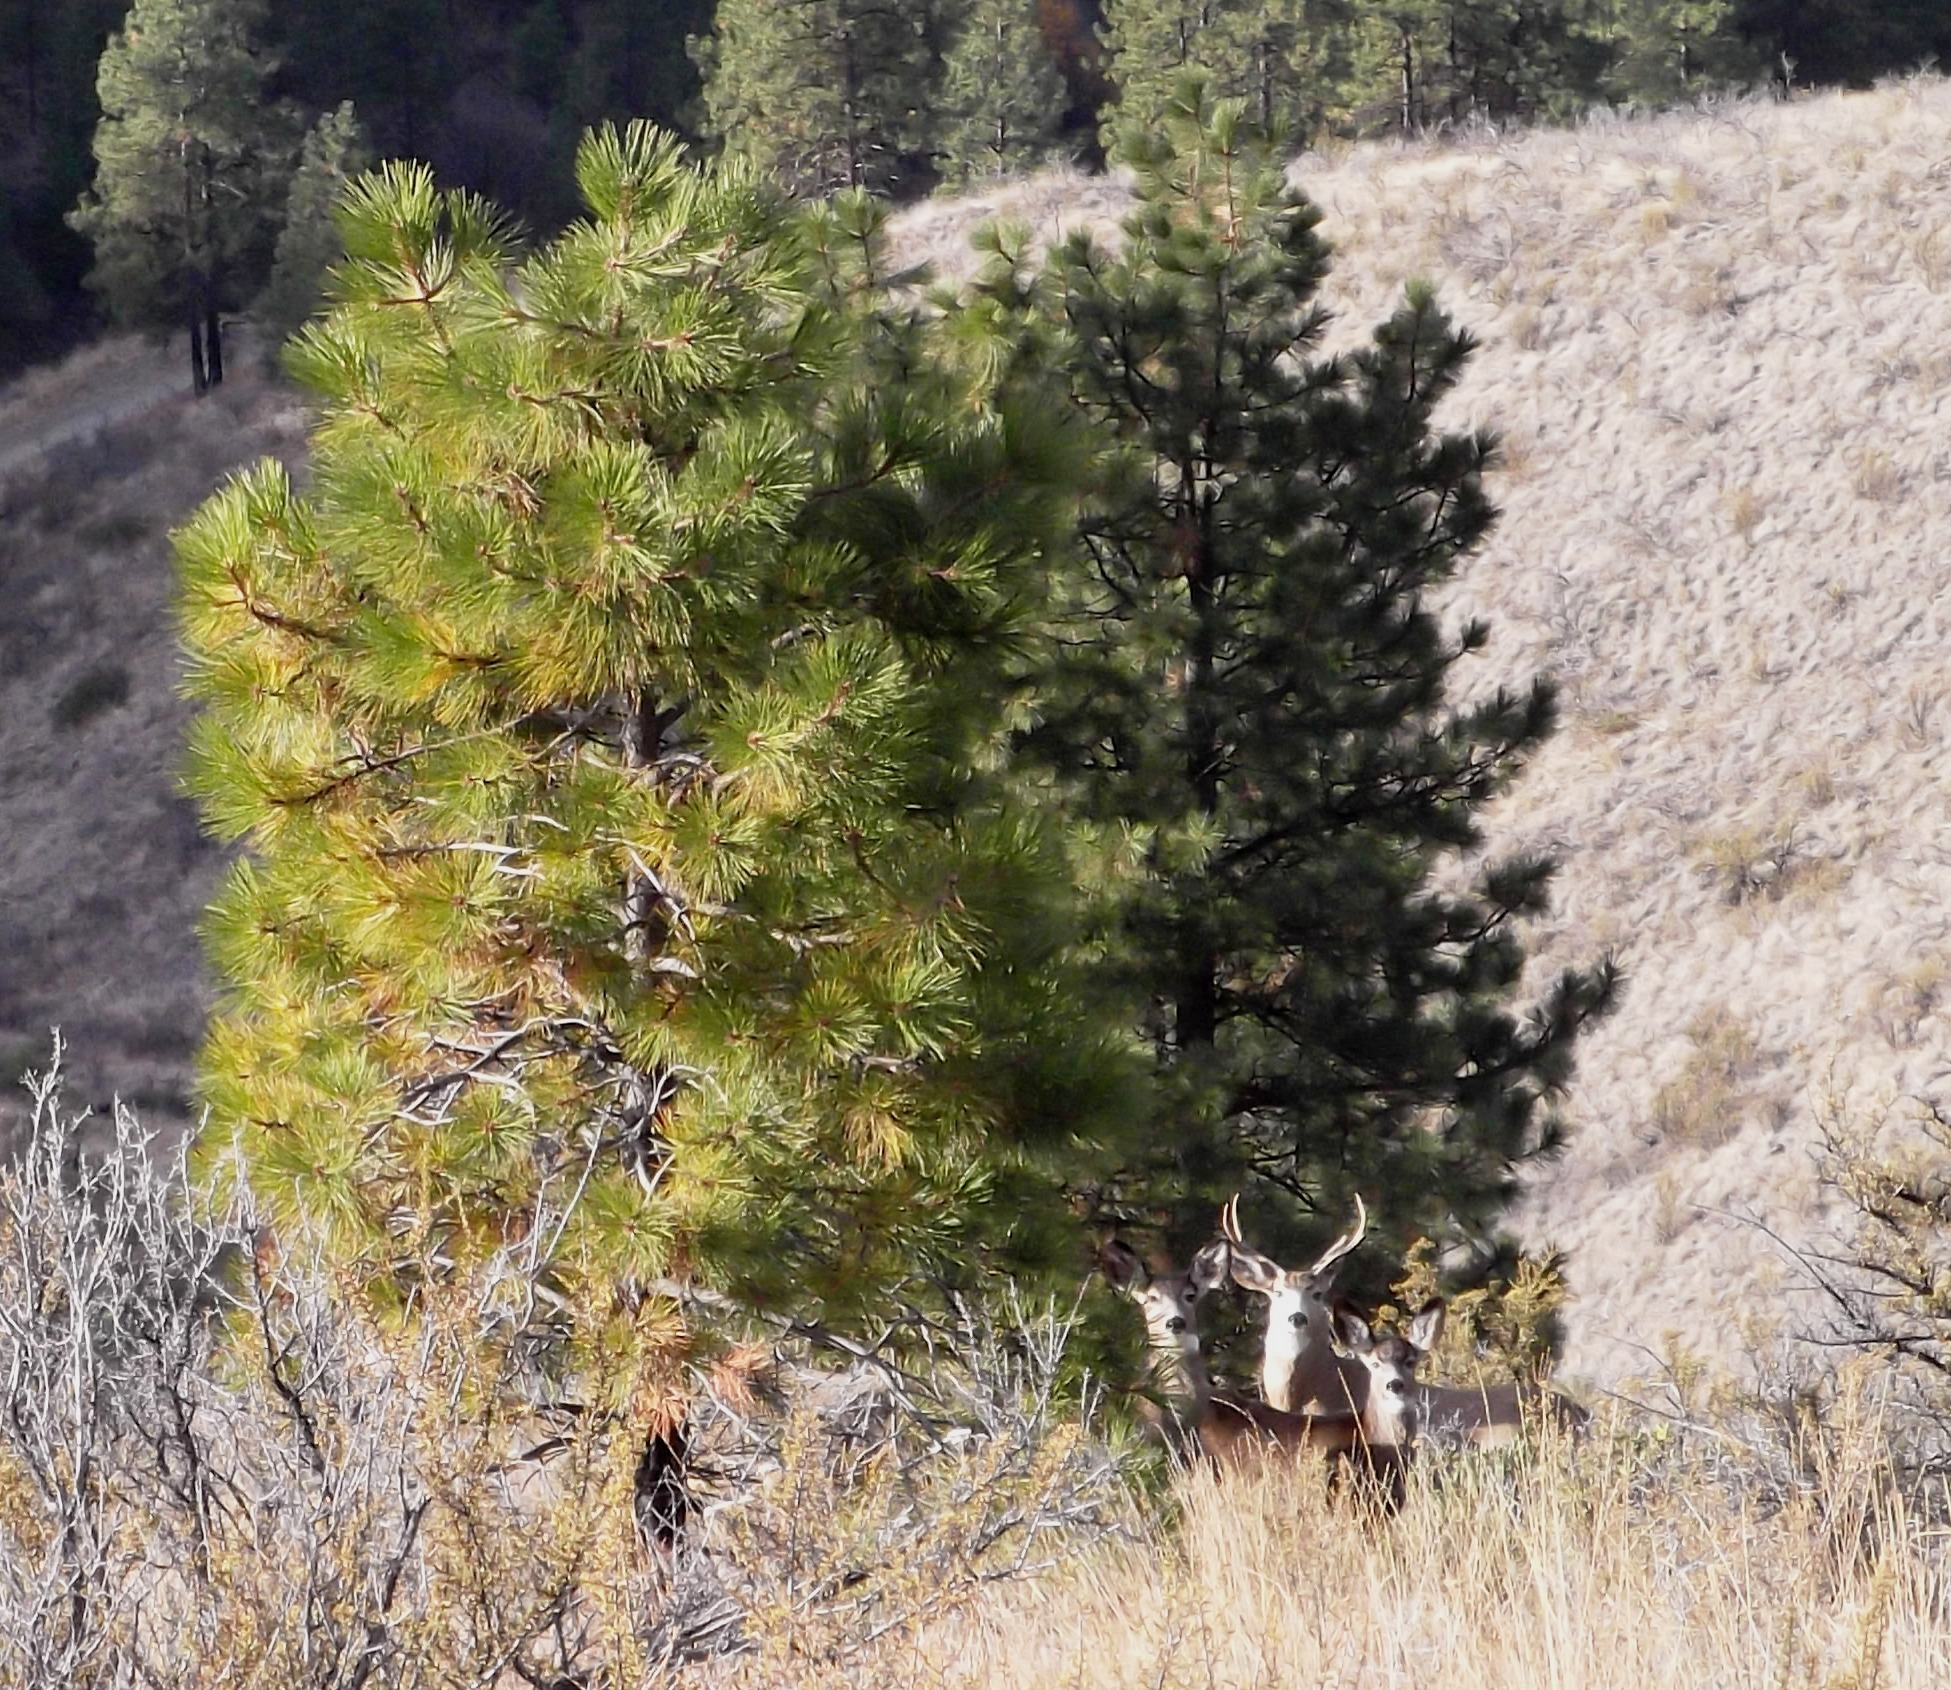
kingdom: Plantae
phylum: Tracheophyta
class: Pinopsida
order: Pinales
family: Pinaceae
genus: Pinus
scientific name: Pinus ponderosa
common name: Western yellow-pine
